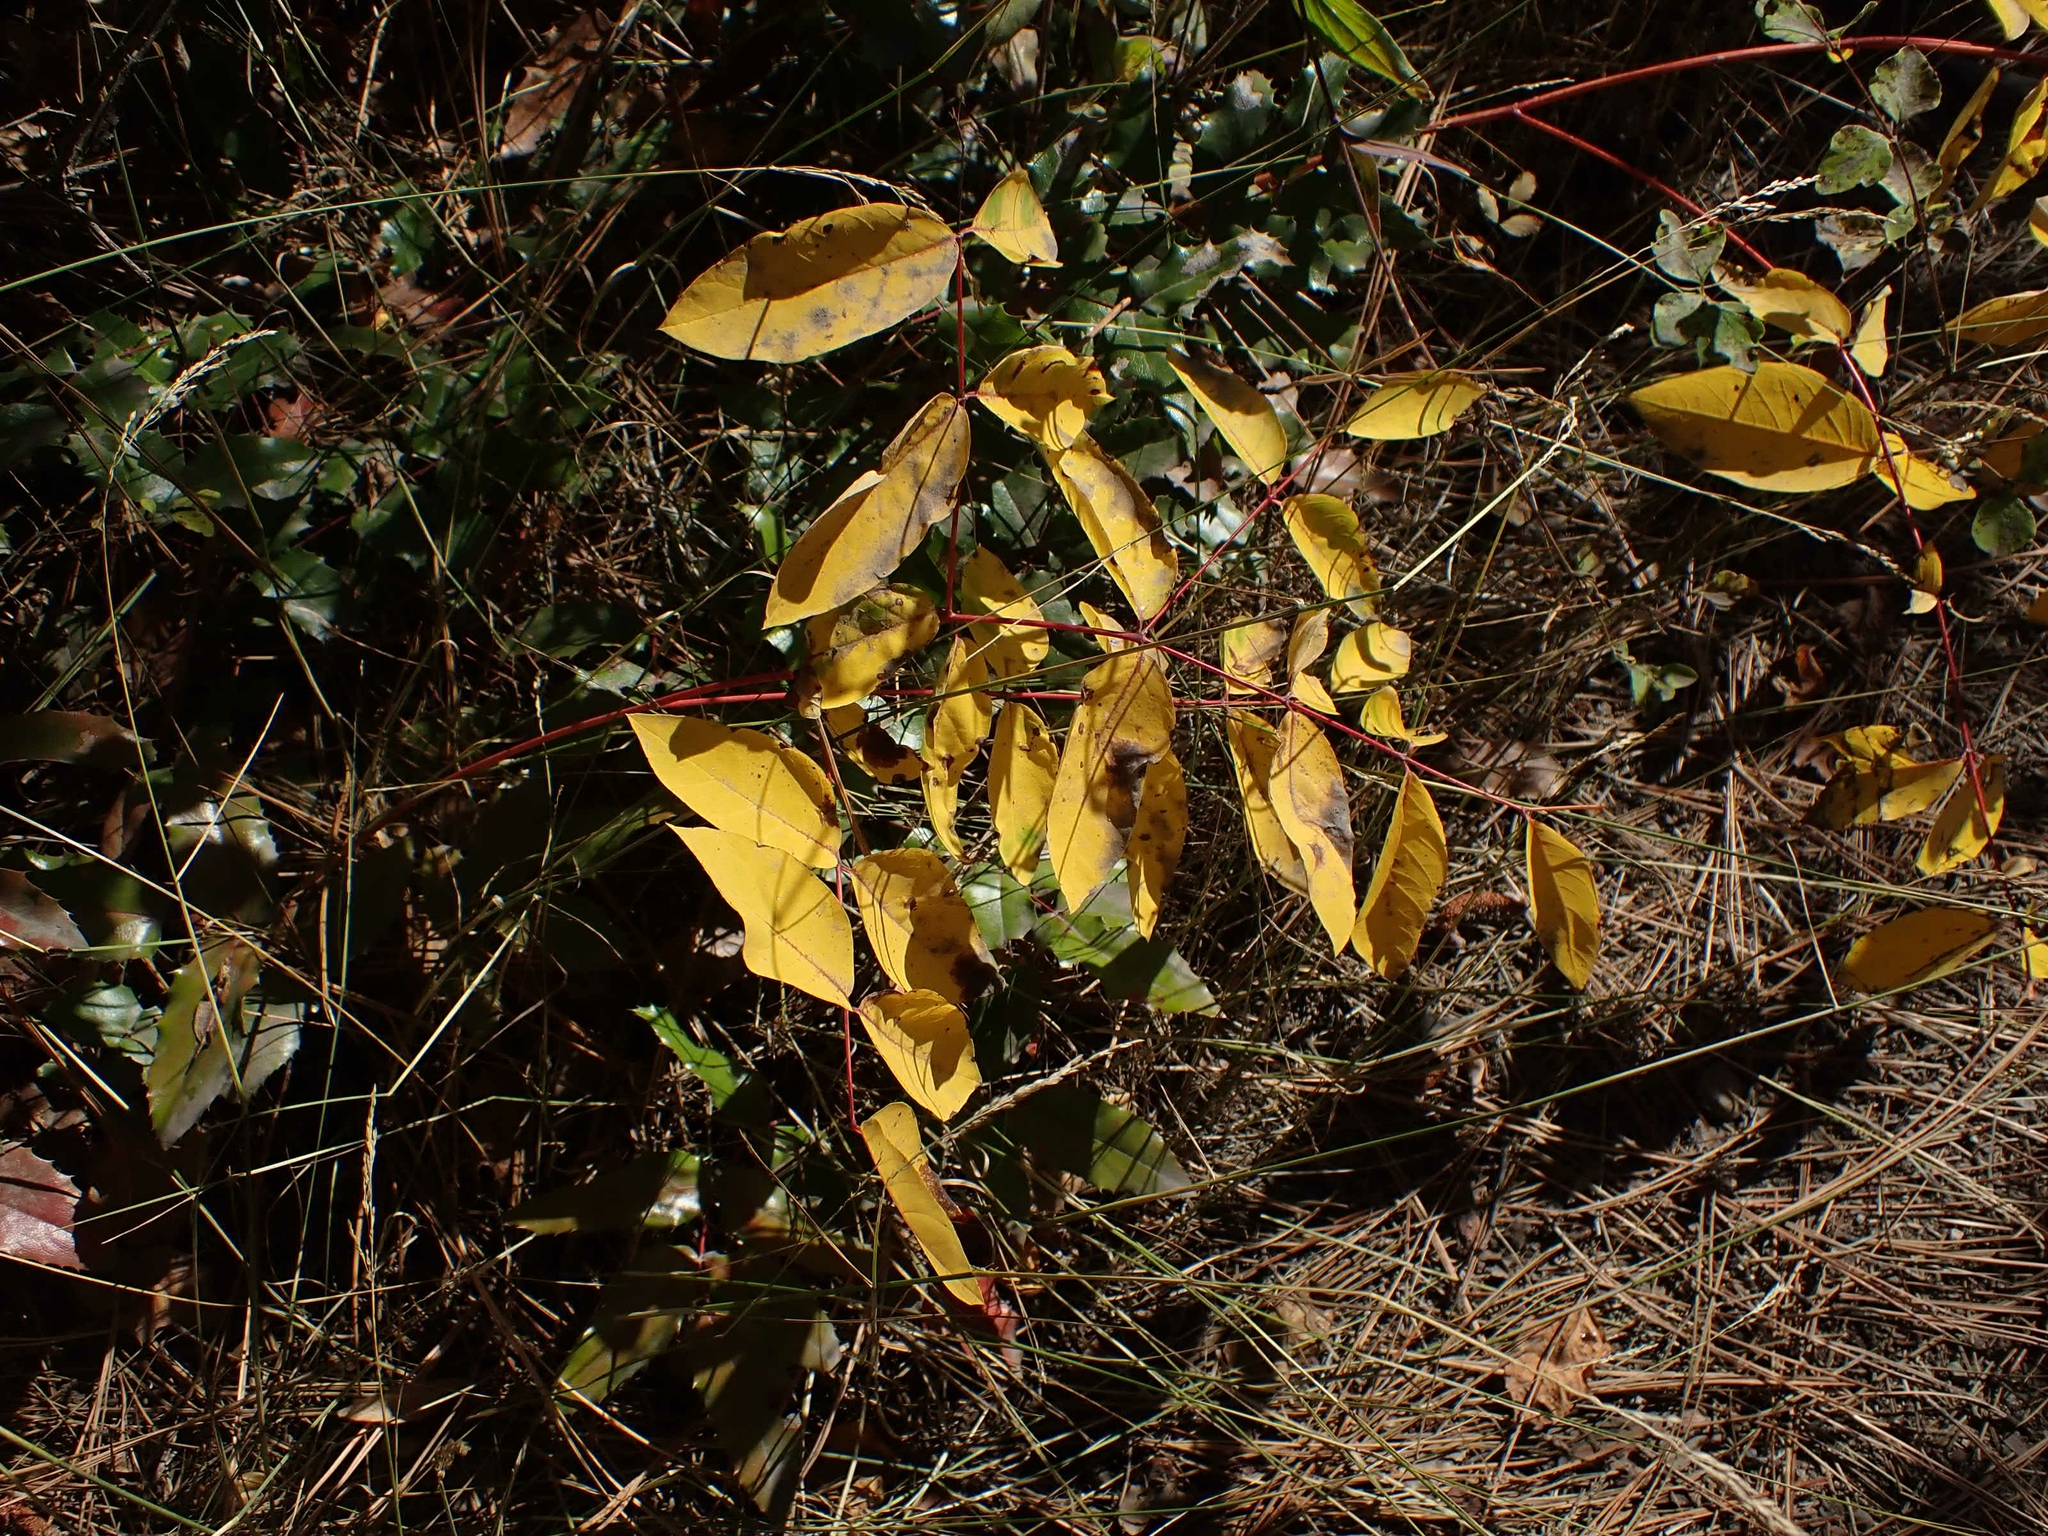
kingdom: Plantae
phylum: Tracheophyta
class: Magnoliopsida
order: Gentianales
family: Apocynaceae
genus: Apocynum
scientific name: Apocynum androsaemifolium
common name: Spreading dogbane
